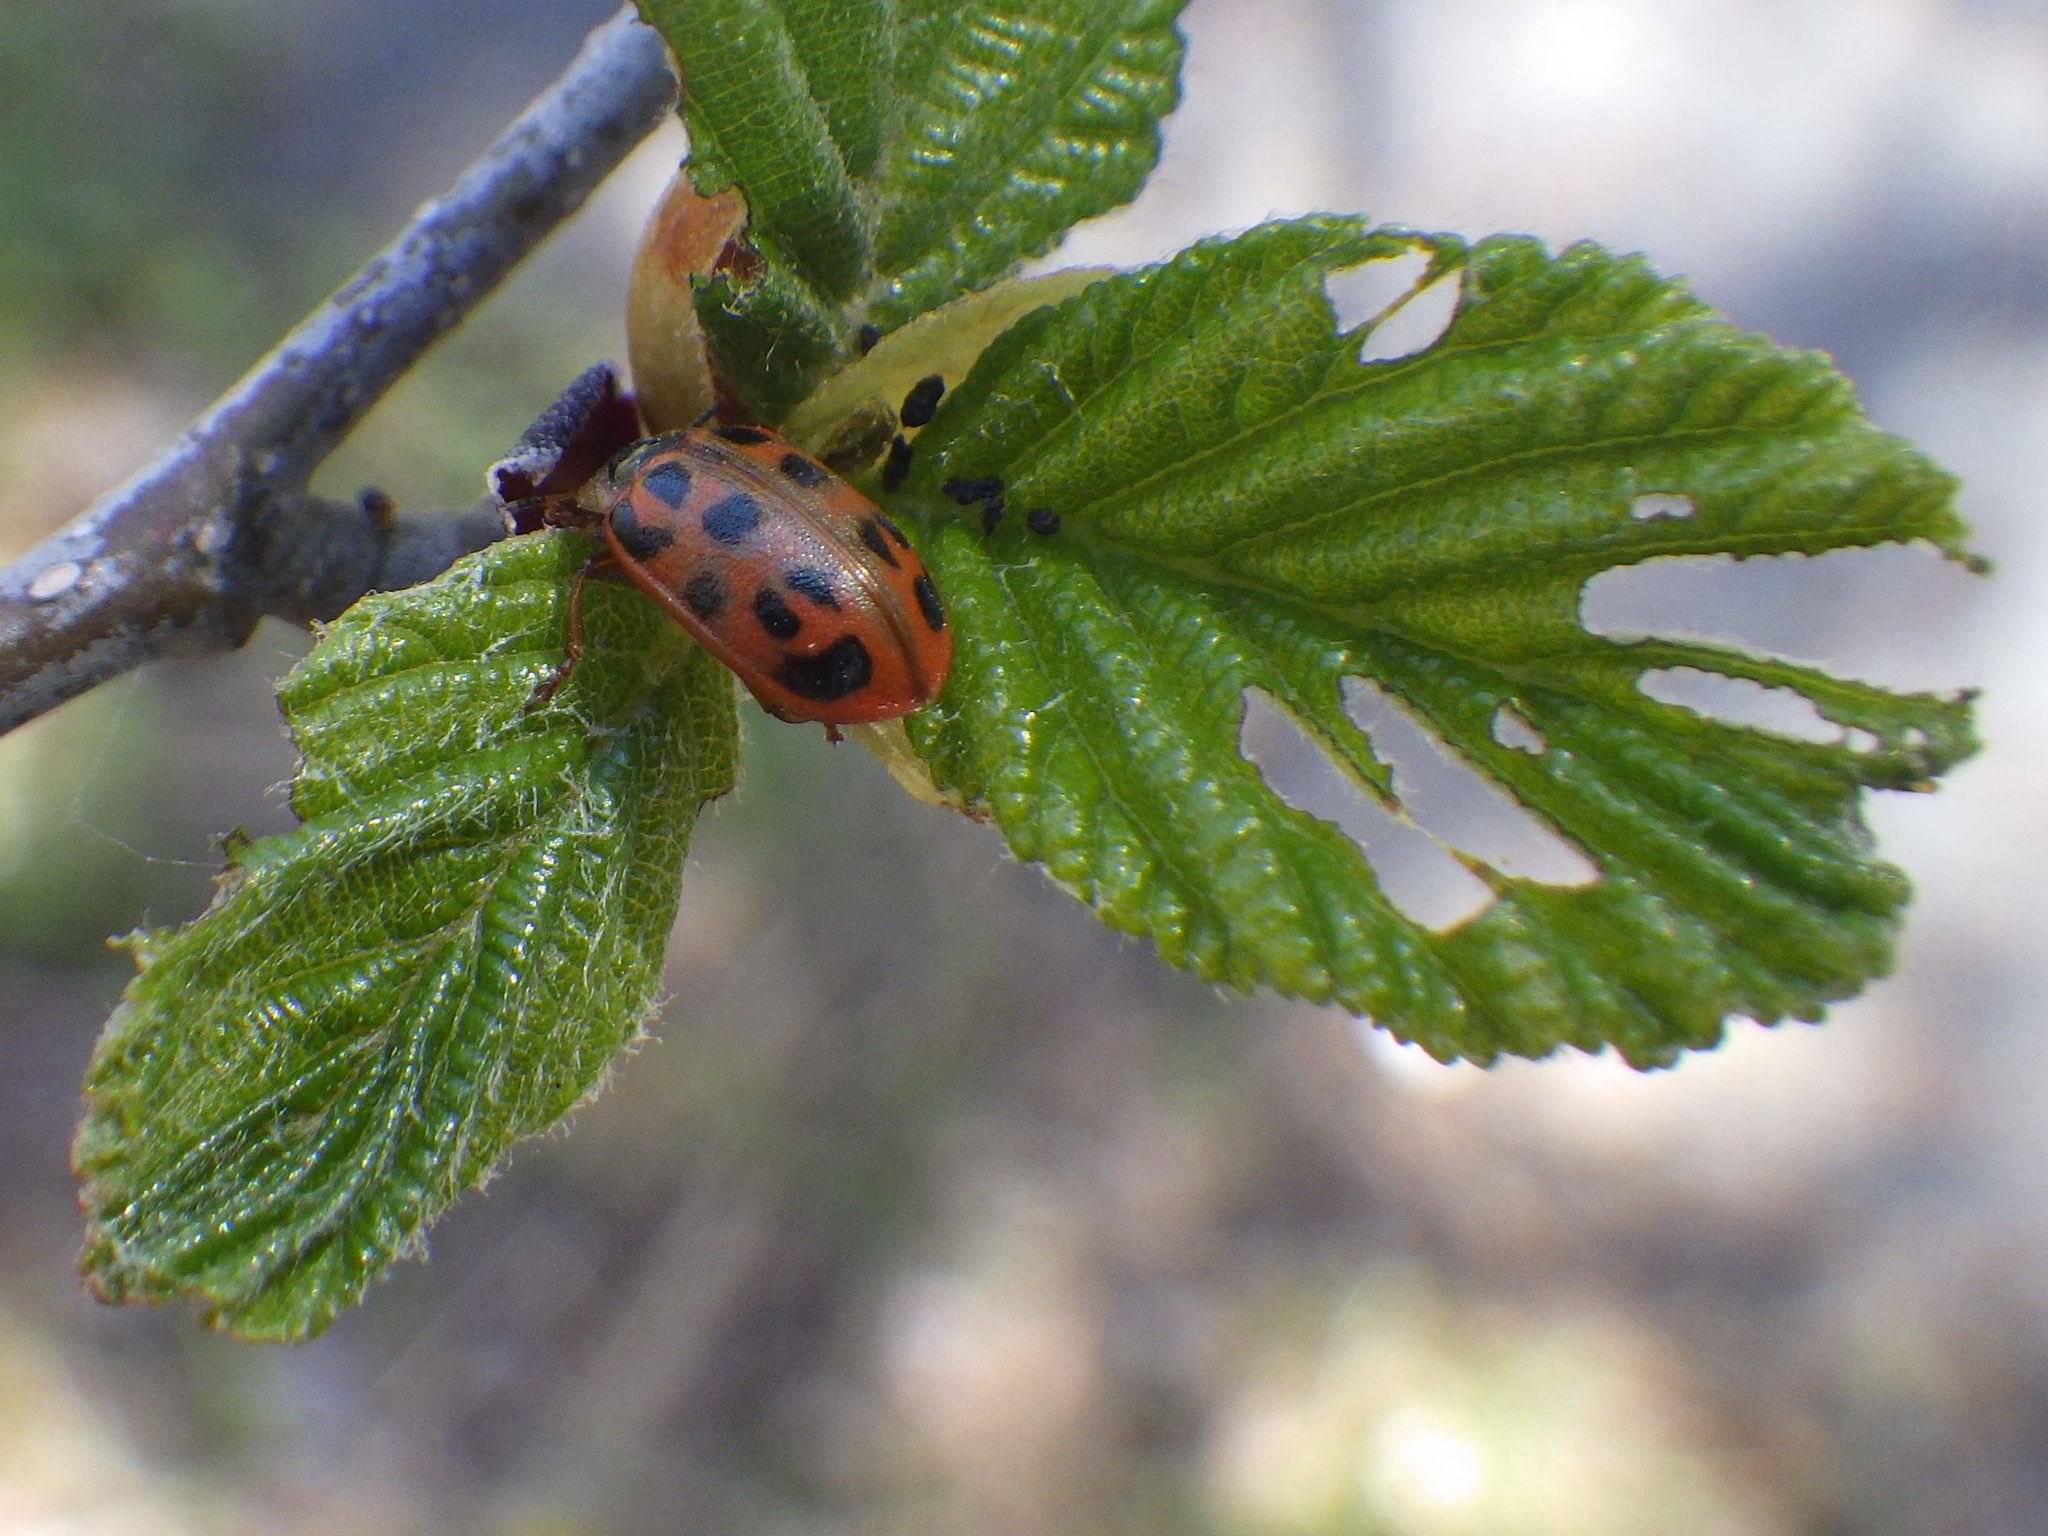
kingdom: Animalia
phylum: Arthropoda
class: Insecta
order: Coleoptera
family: Chrysomelidae
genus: Chrysomela
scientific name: Chrysomela mainensis
